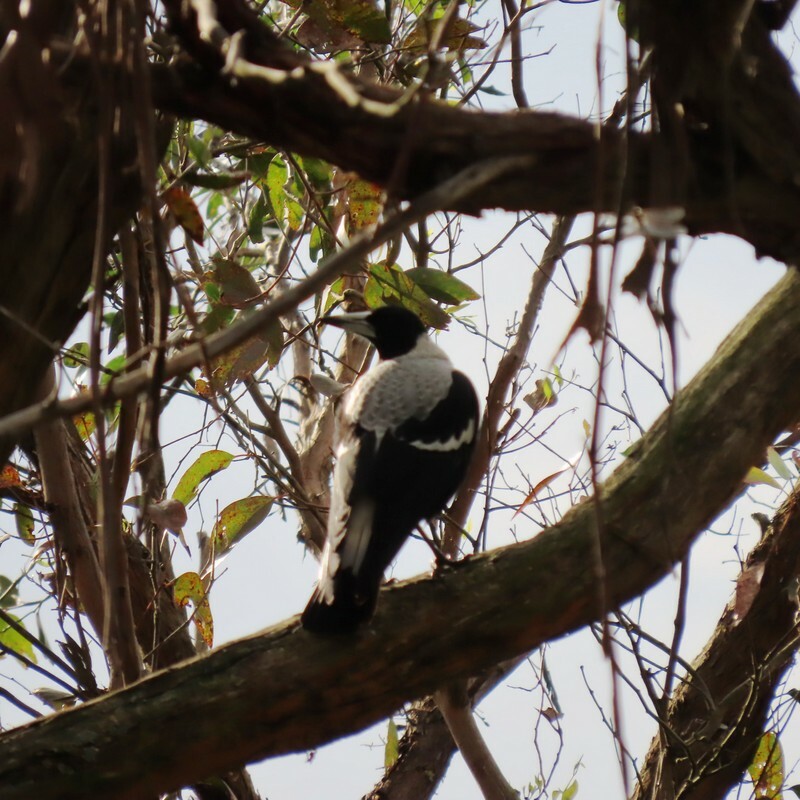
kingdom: Animalia
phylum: Chordata
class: Aves
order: Passeriformes
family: Cracticidae
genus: Gymnorhina
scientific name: Gymnorhina tibicen
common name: Australian magpie
